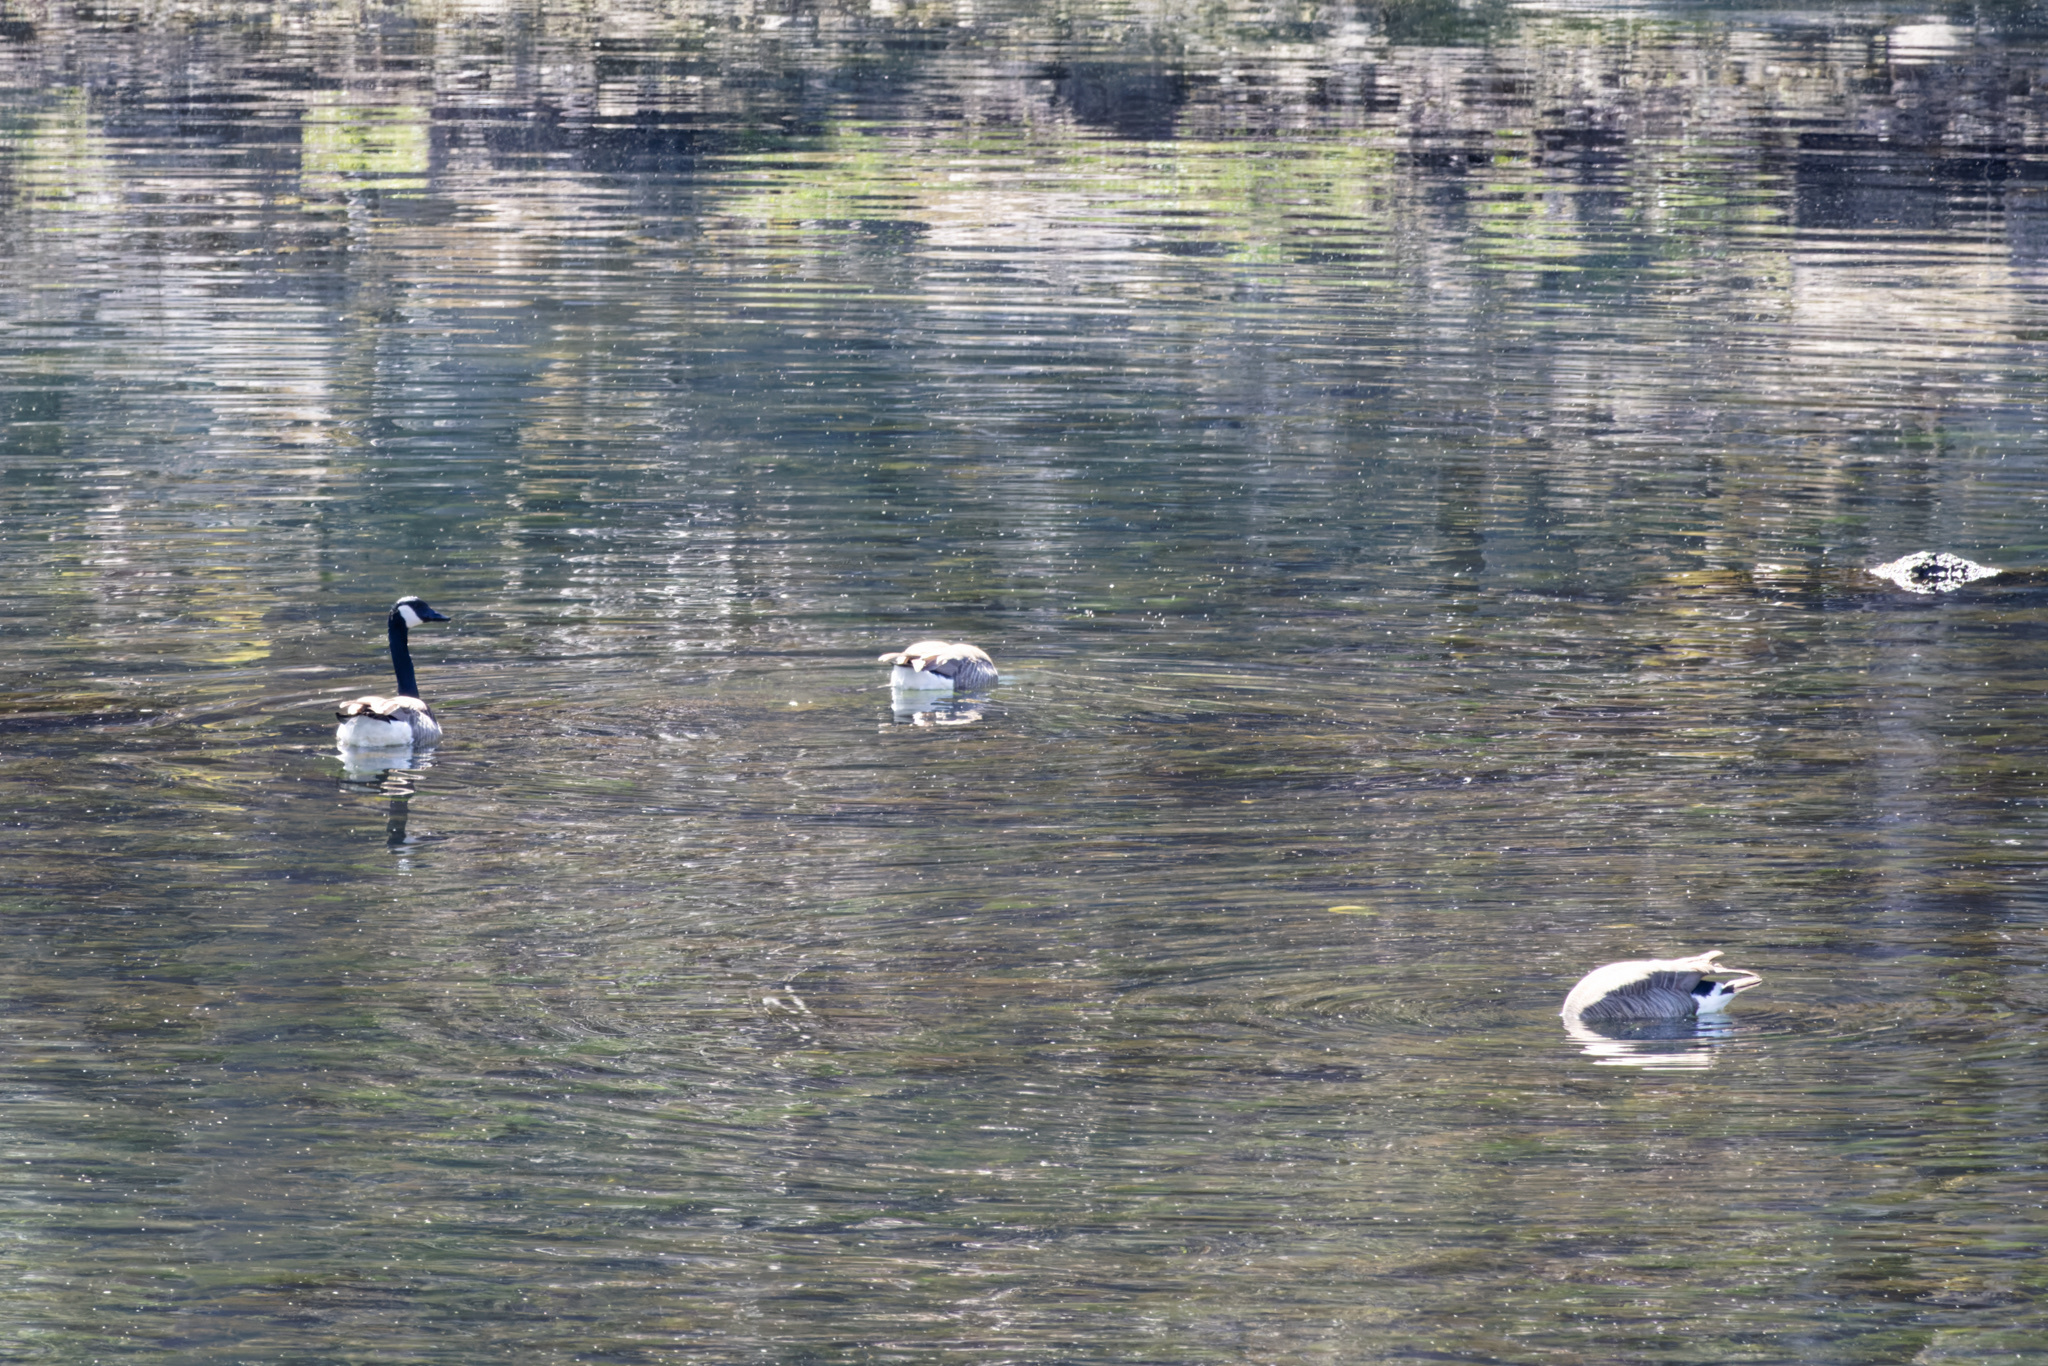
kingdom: Animalia
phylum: Chordata
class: Aves
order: Anseriformes
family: Anatidae
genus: Branta
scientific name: Branta canadensis
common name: Canada goose
